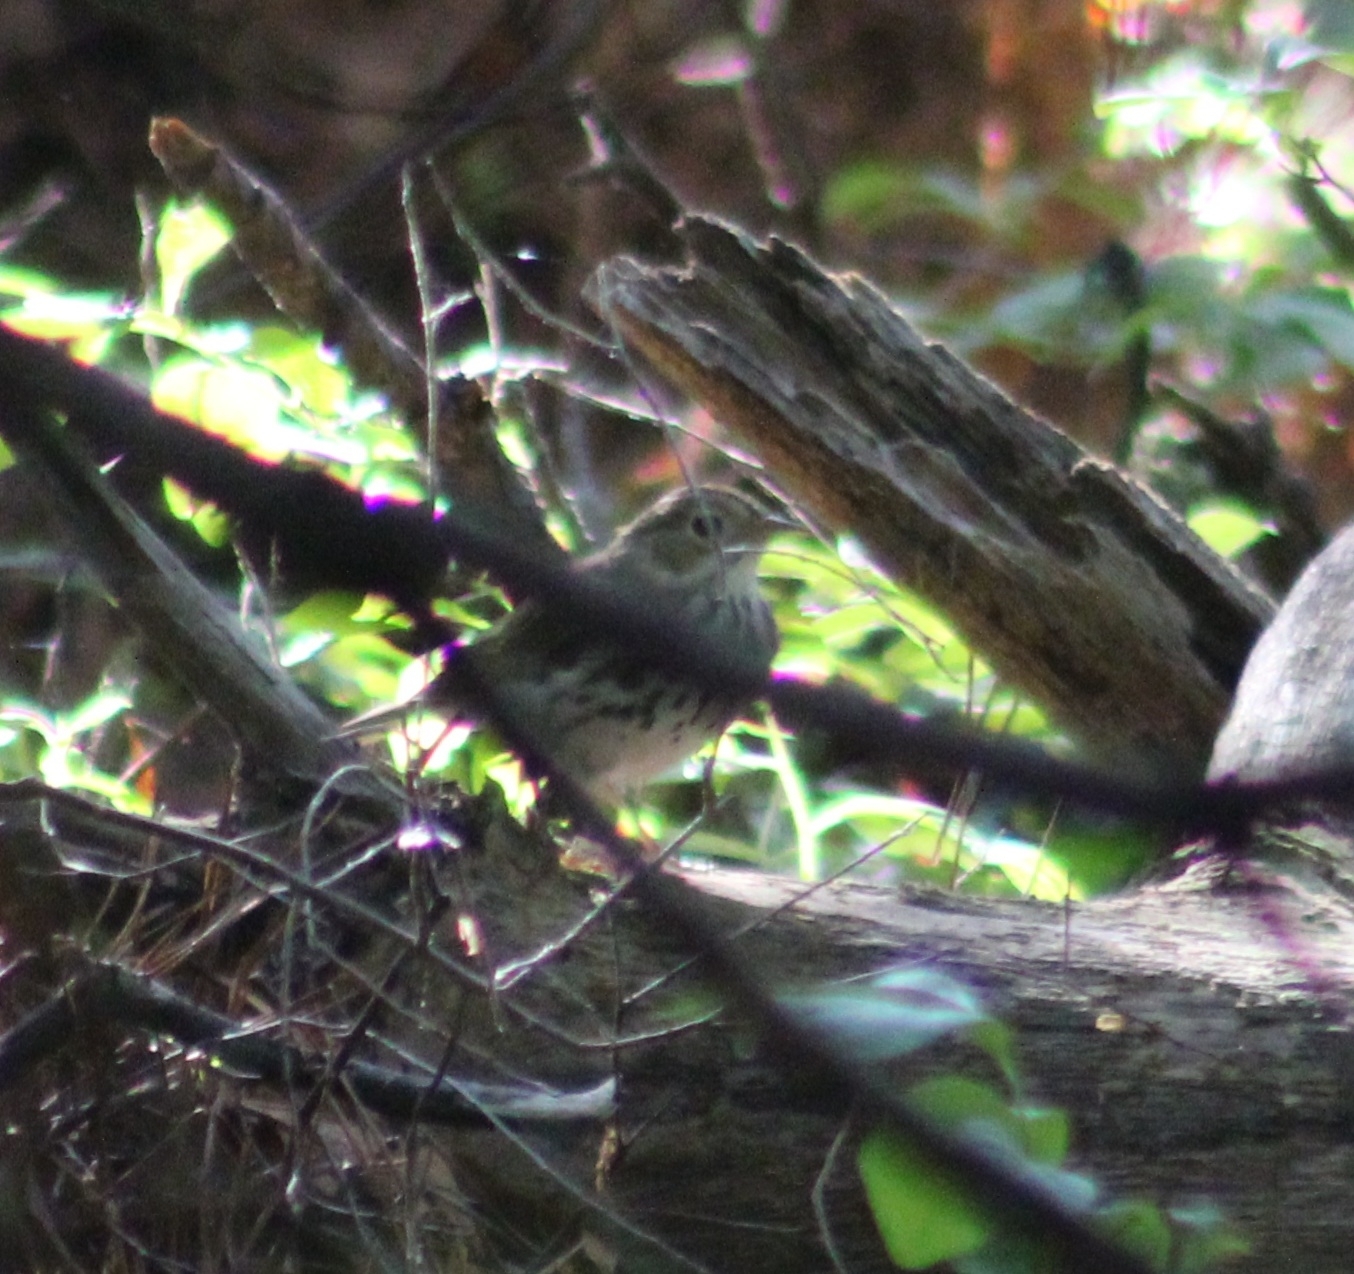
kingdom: Animalia
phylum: Chordata
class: Aves
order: Passeriformes
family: Parulidae
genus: Seiurus
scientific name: Seiurus aurocapilla
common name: Ovenbird
